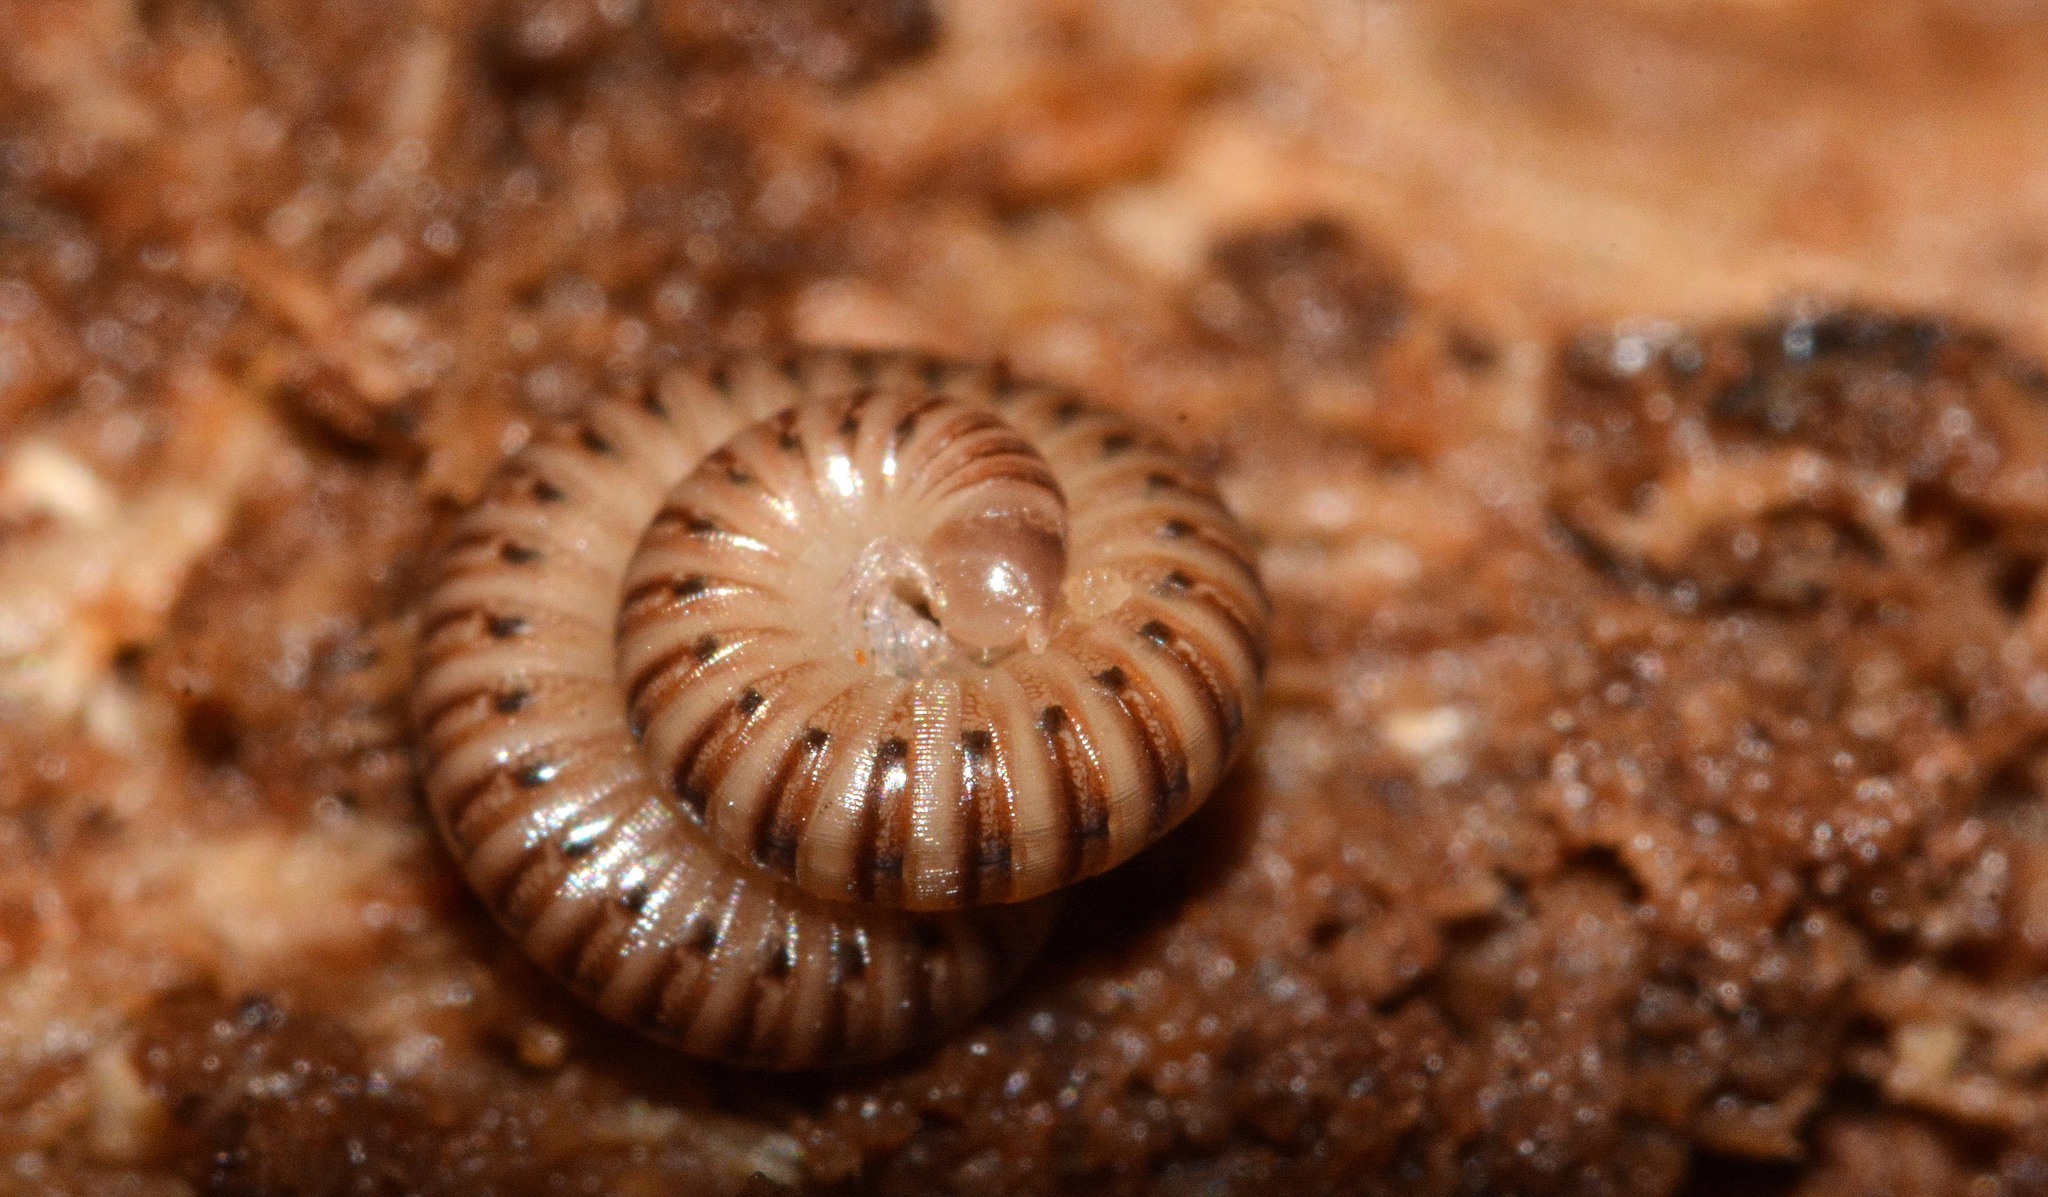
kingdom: Animalia
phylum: Arthropoda
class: Diplopoda
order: Julida
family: Julidae
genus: Cylindroiulus
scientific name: Cylindroiulus punctatus
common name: Blunt-tailed millipede
